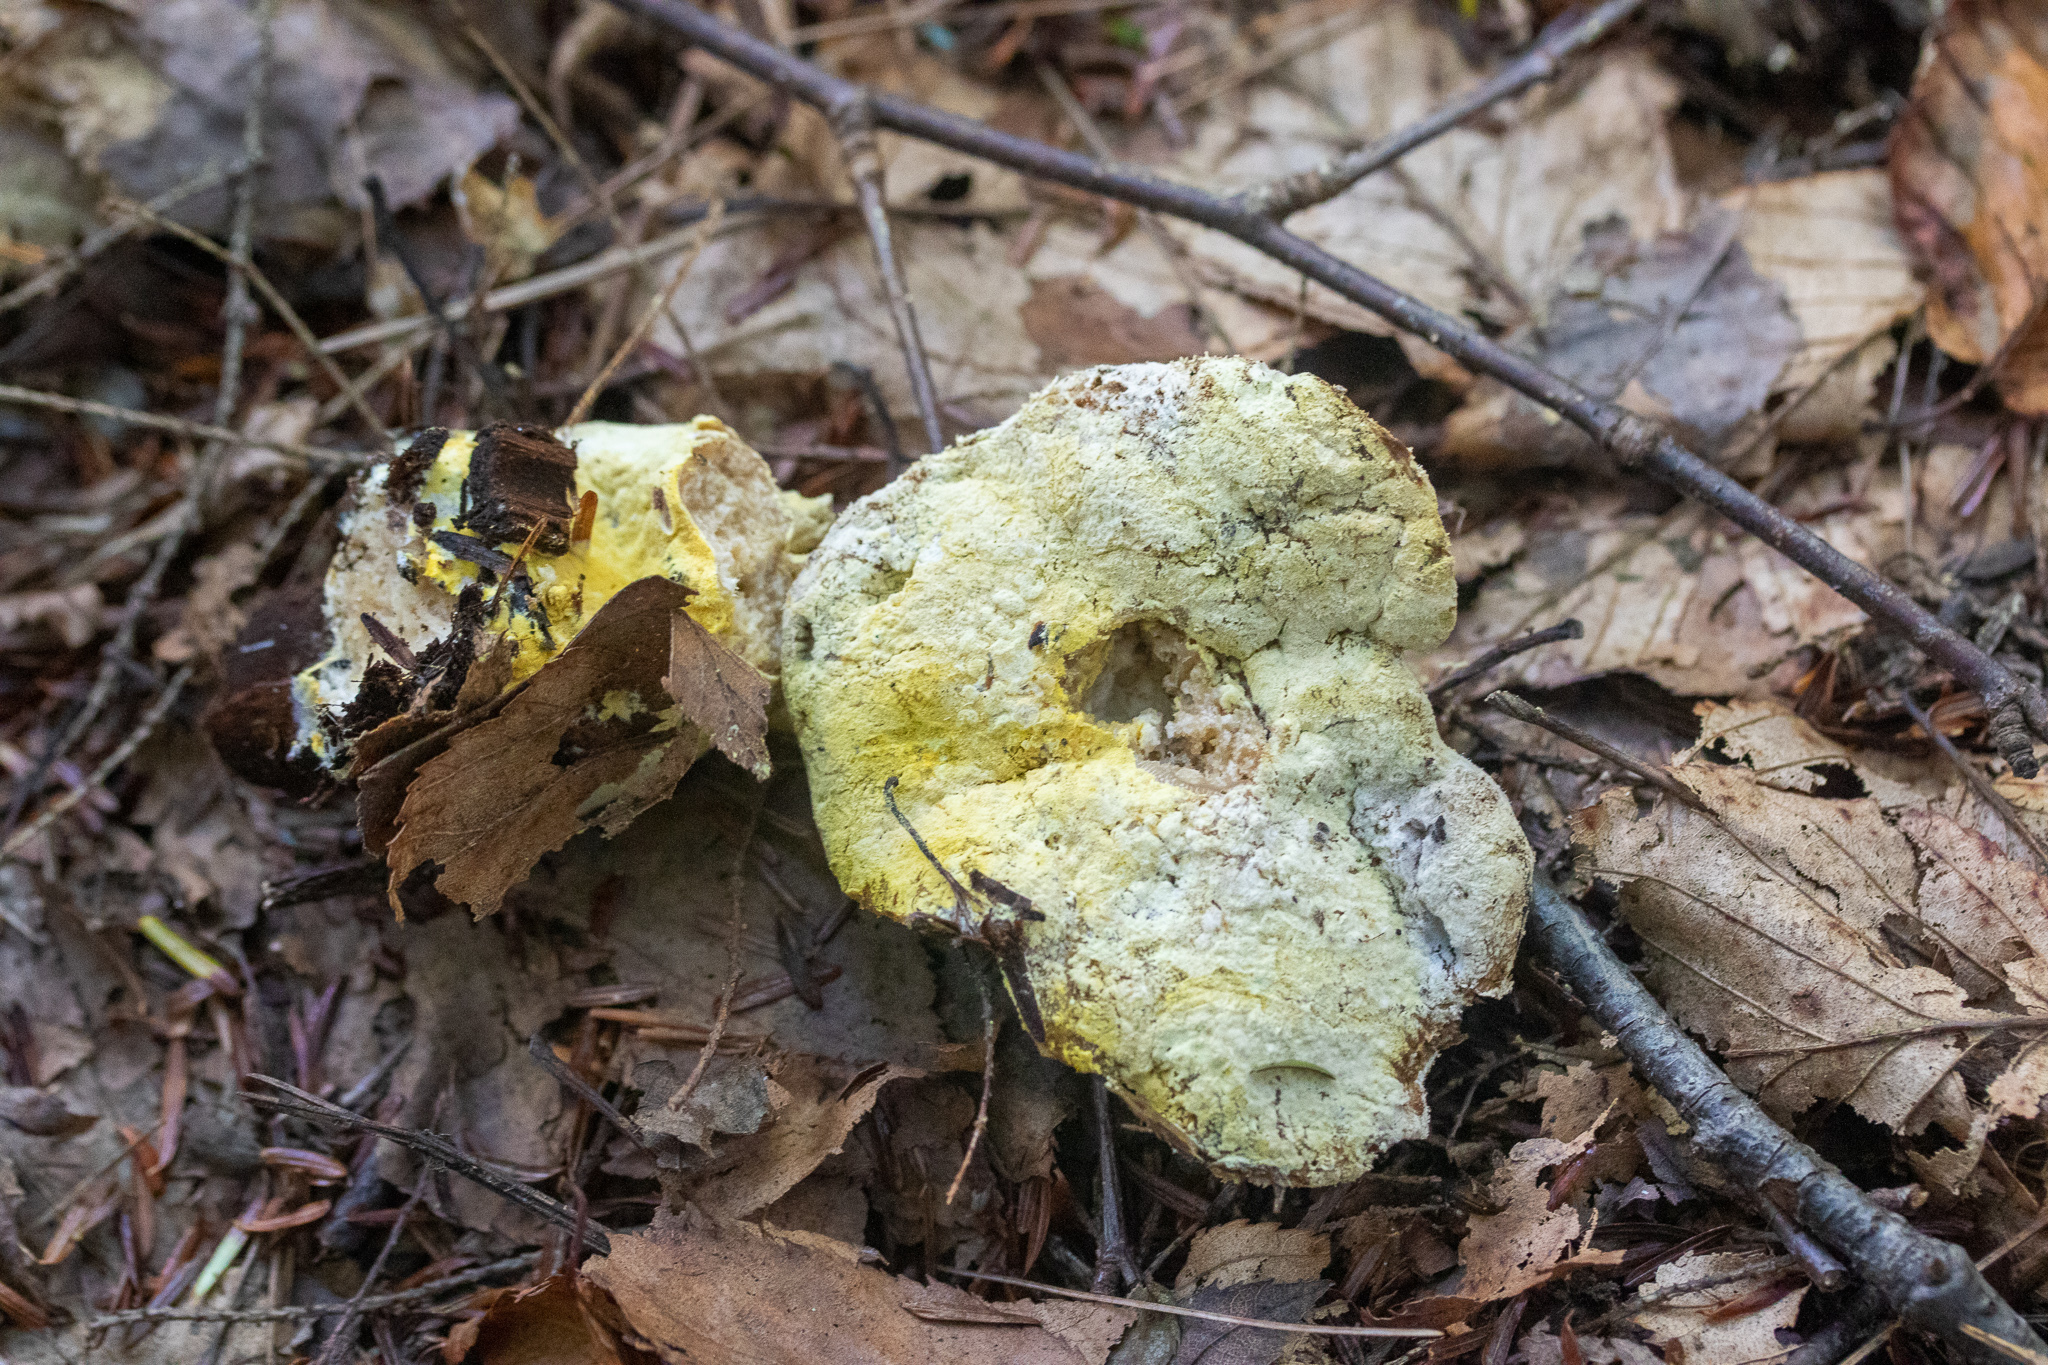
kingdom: Fungi
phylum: Ascomycota
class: Sordariomycetes
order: Hypocreales
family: Hypocreaceae
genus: Hypomyces
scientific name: Hypomyces chrysospermus
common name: Bolete mould
